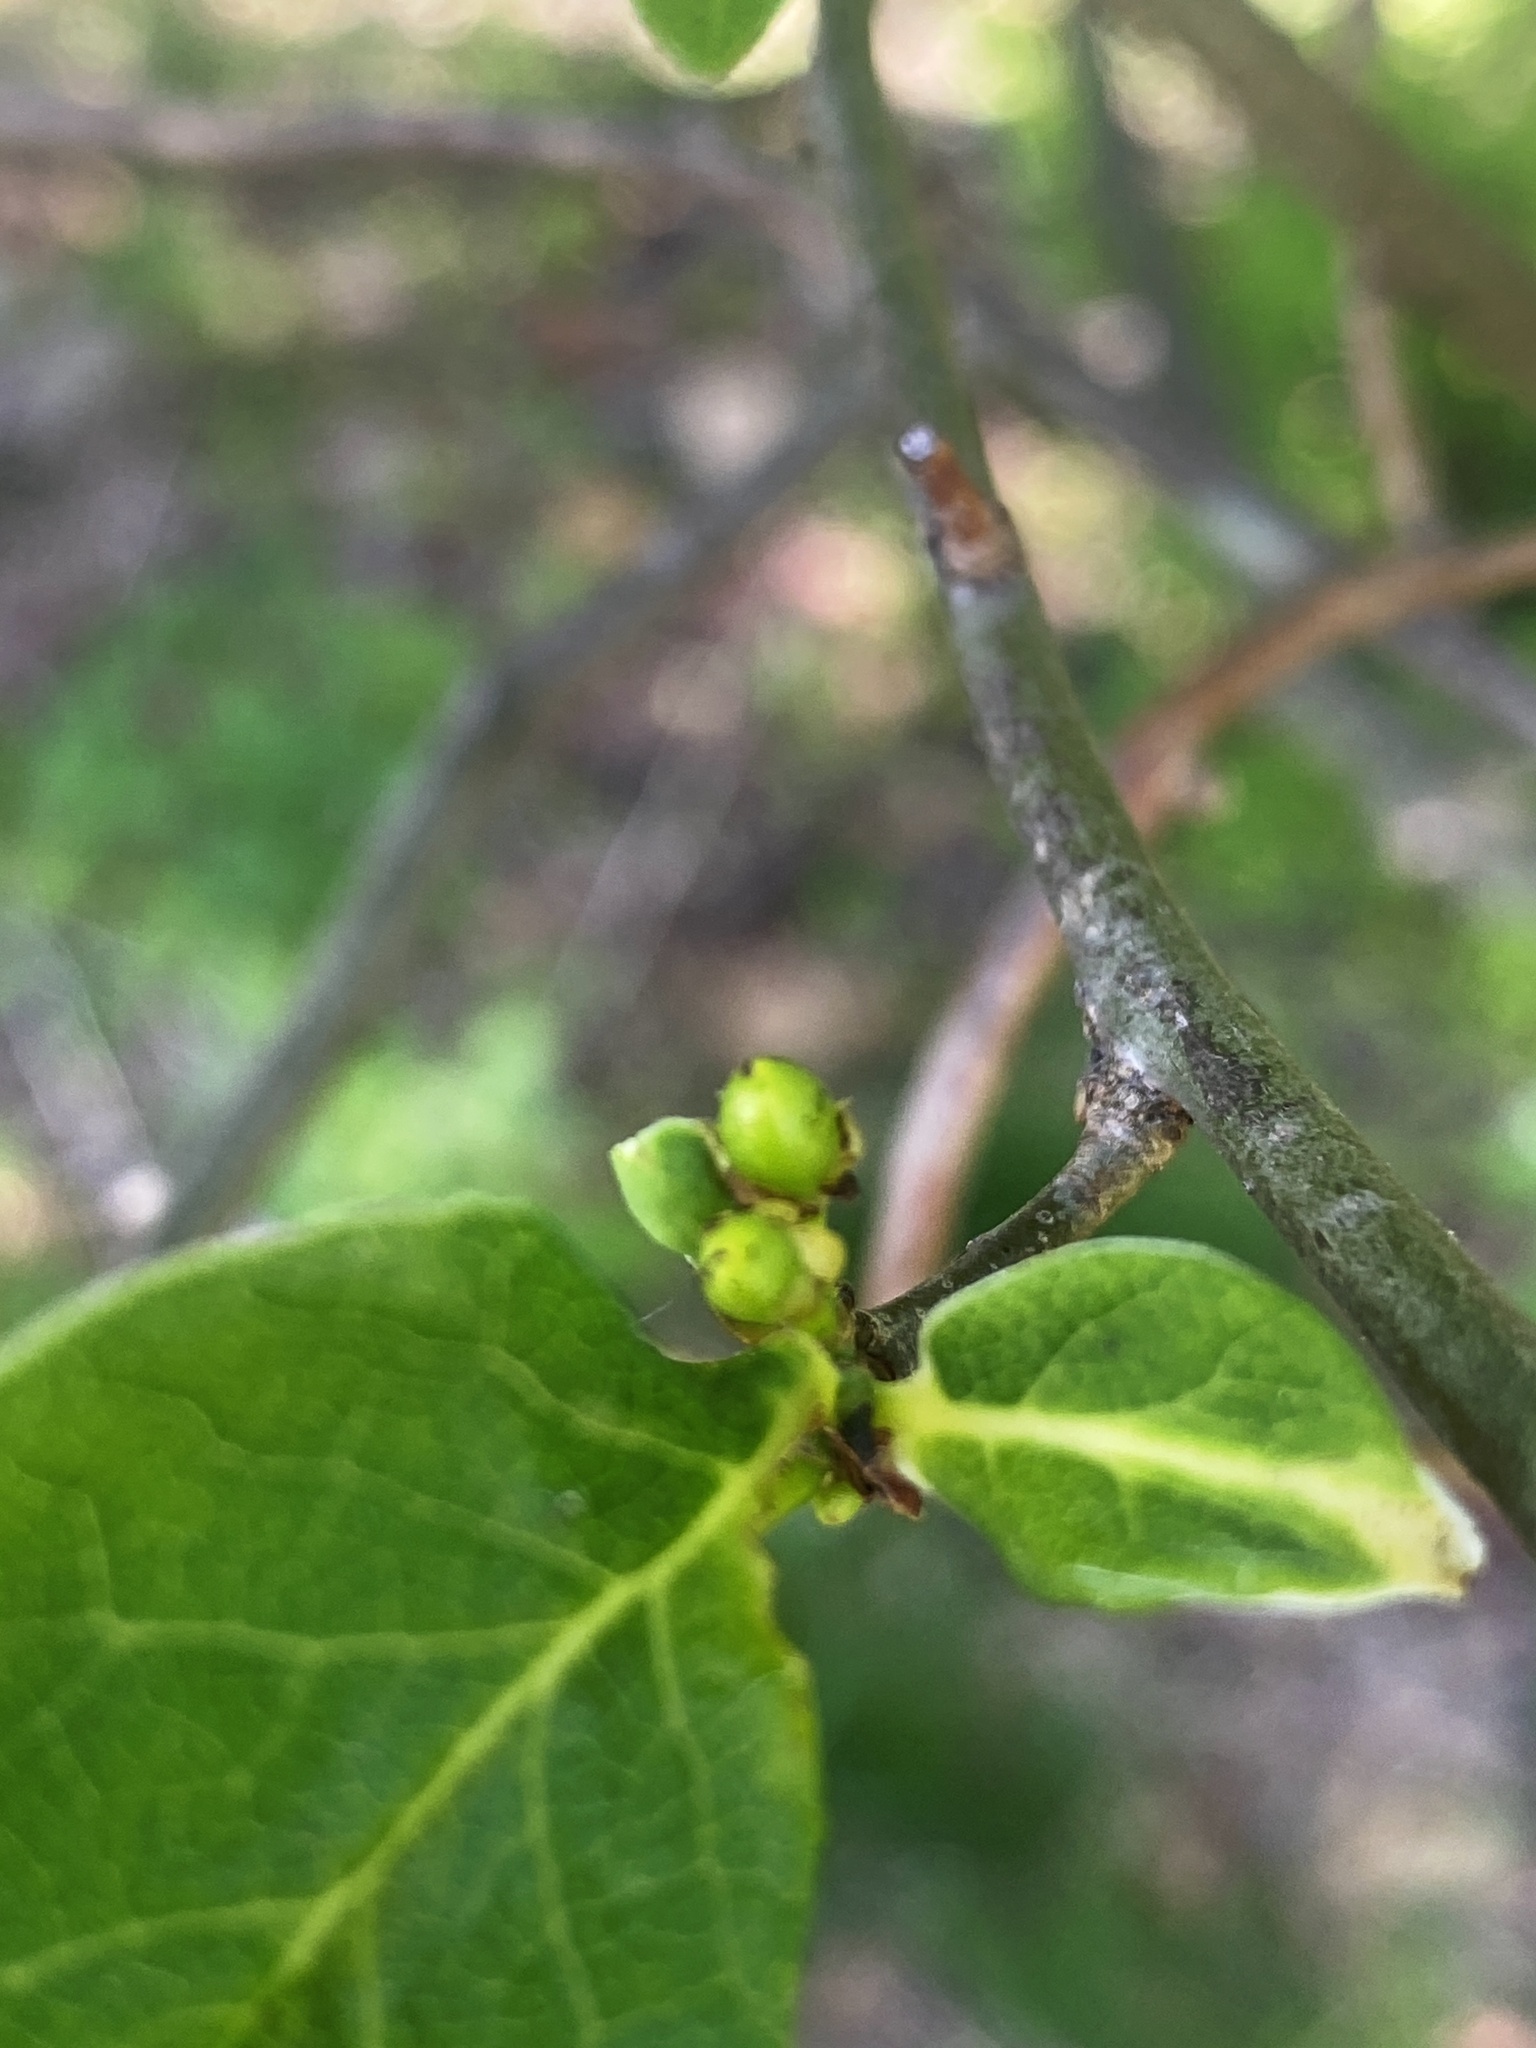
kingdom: Plantae
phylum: Tracheophyta
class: Magnoliopsida
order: Laurales
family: Lauraceae
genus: Lindera
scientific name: Lindera benzoin
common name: Spicebush
